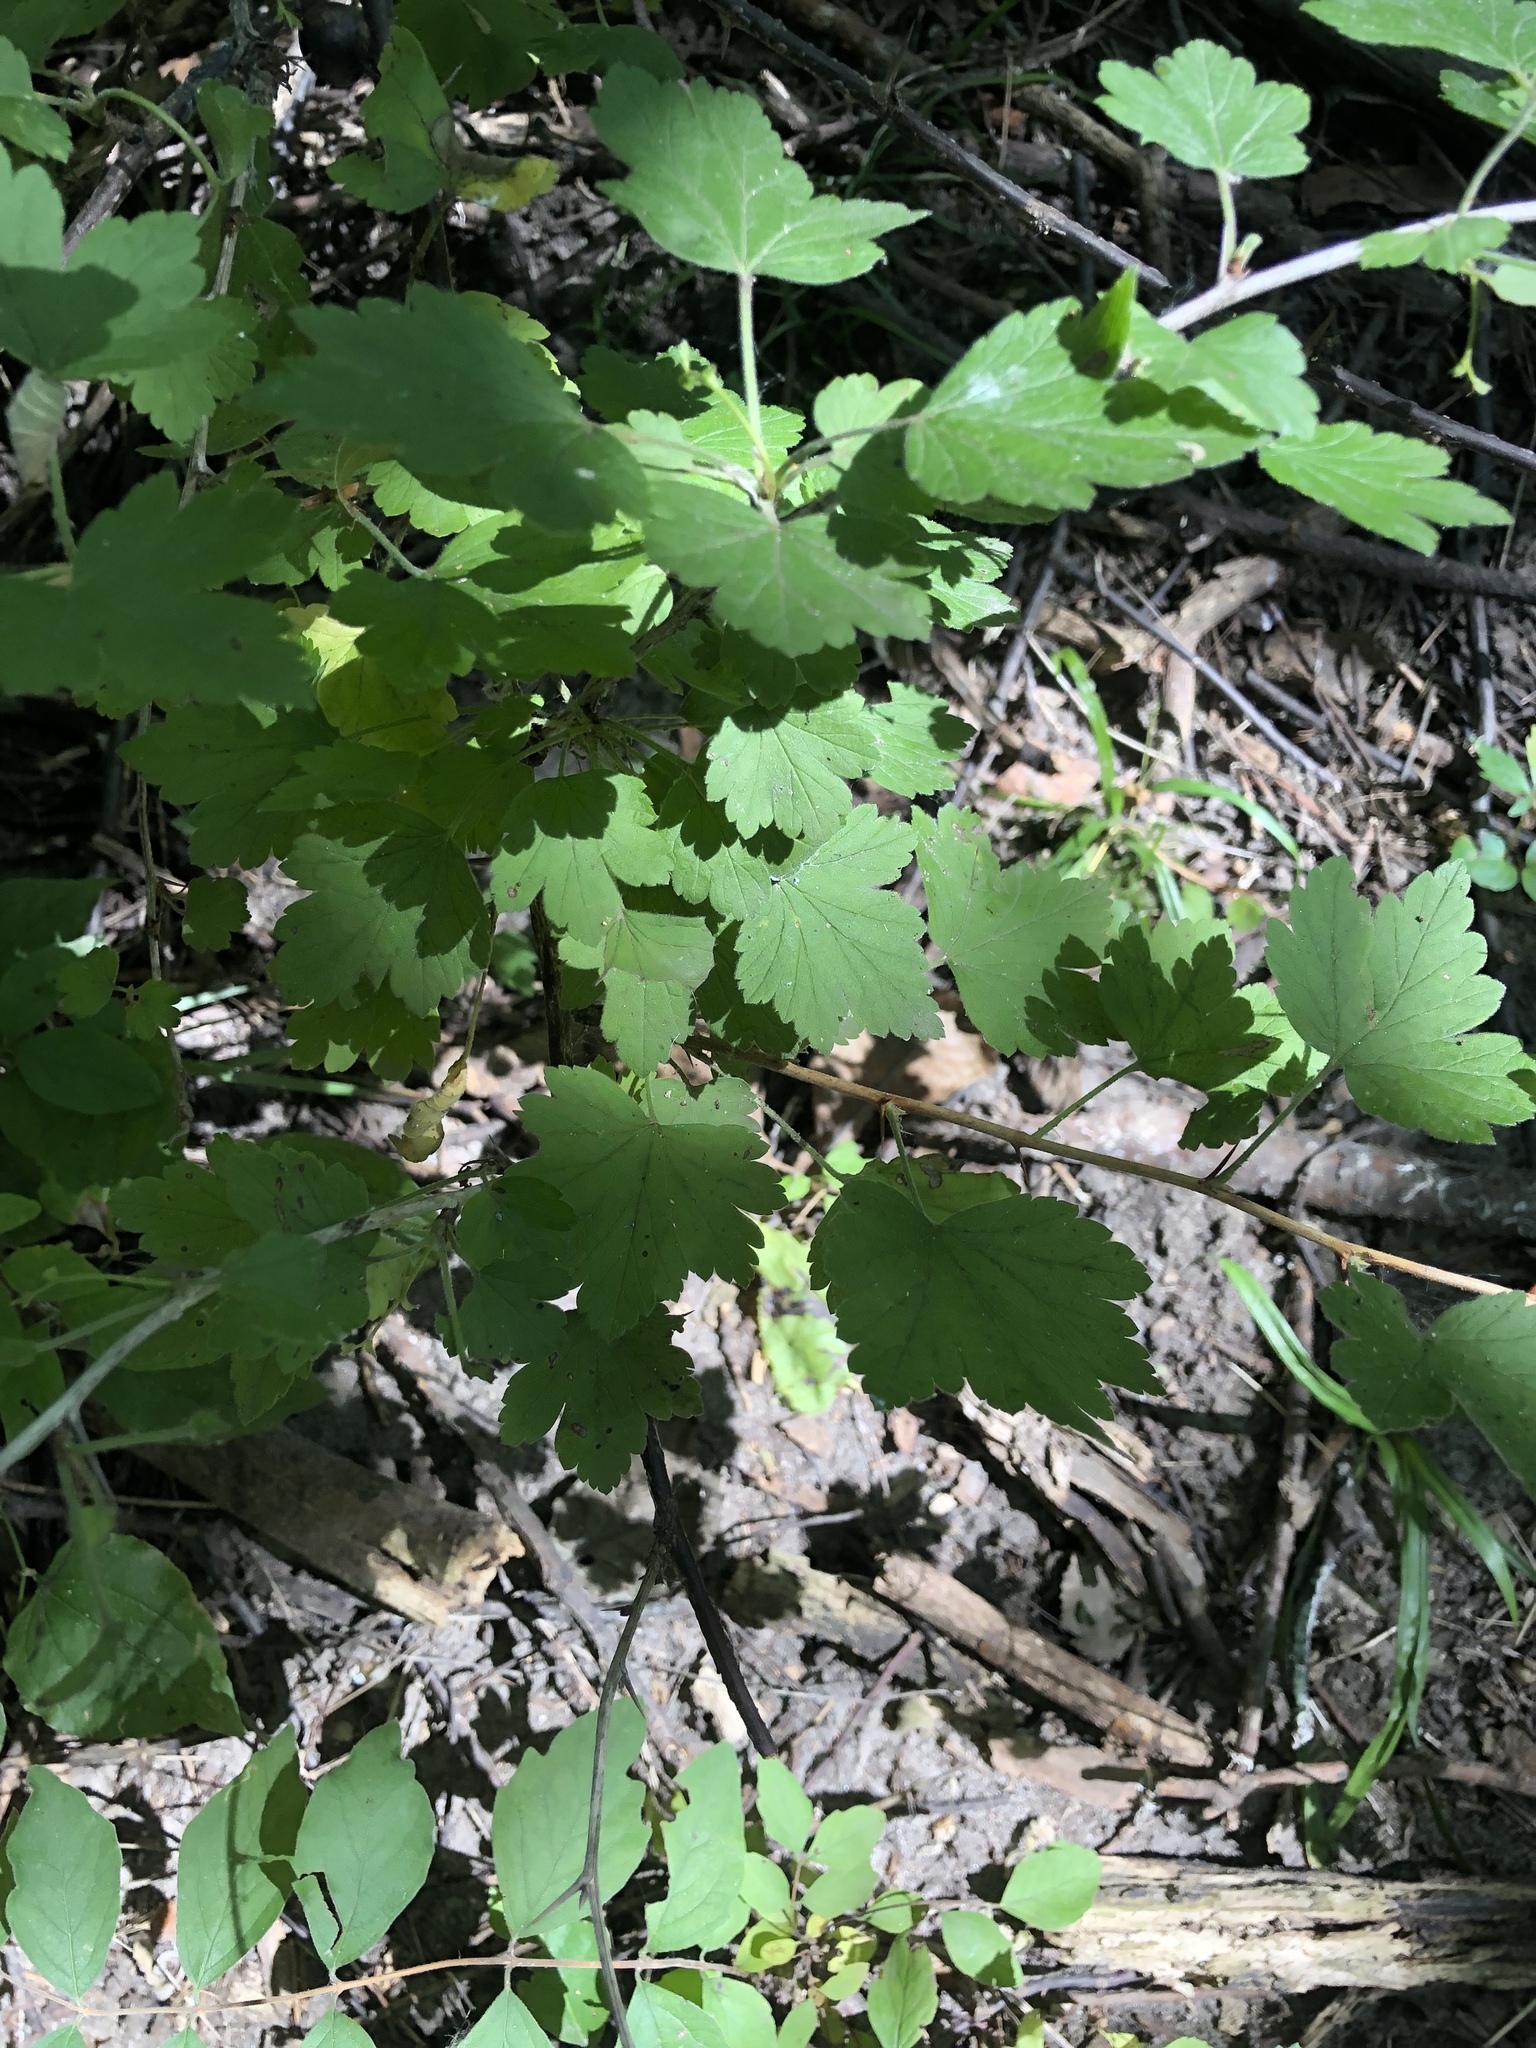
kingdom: Plantae
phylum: Tracheophyta
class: Magnoliopsida
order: Saxifragales
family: Grossulariaceae
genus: Ribes
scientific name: Ribes missouriense
